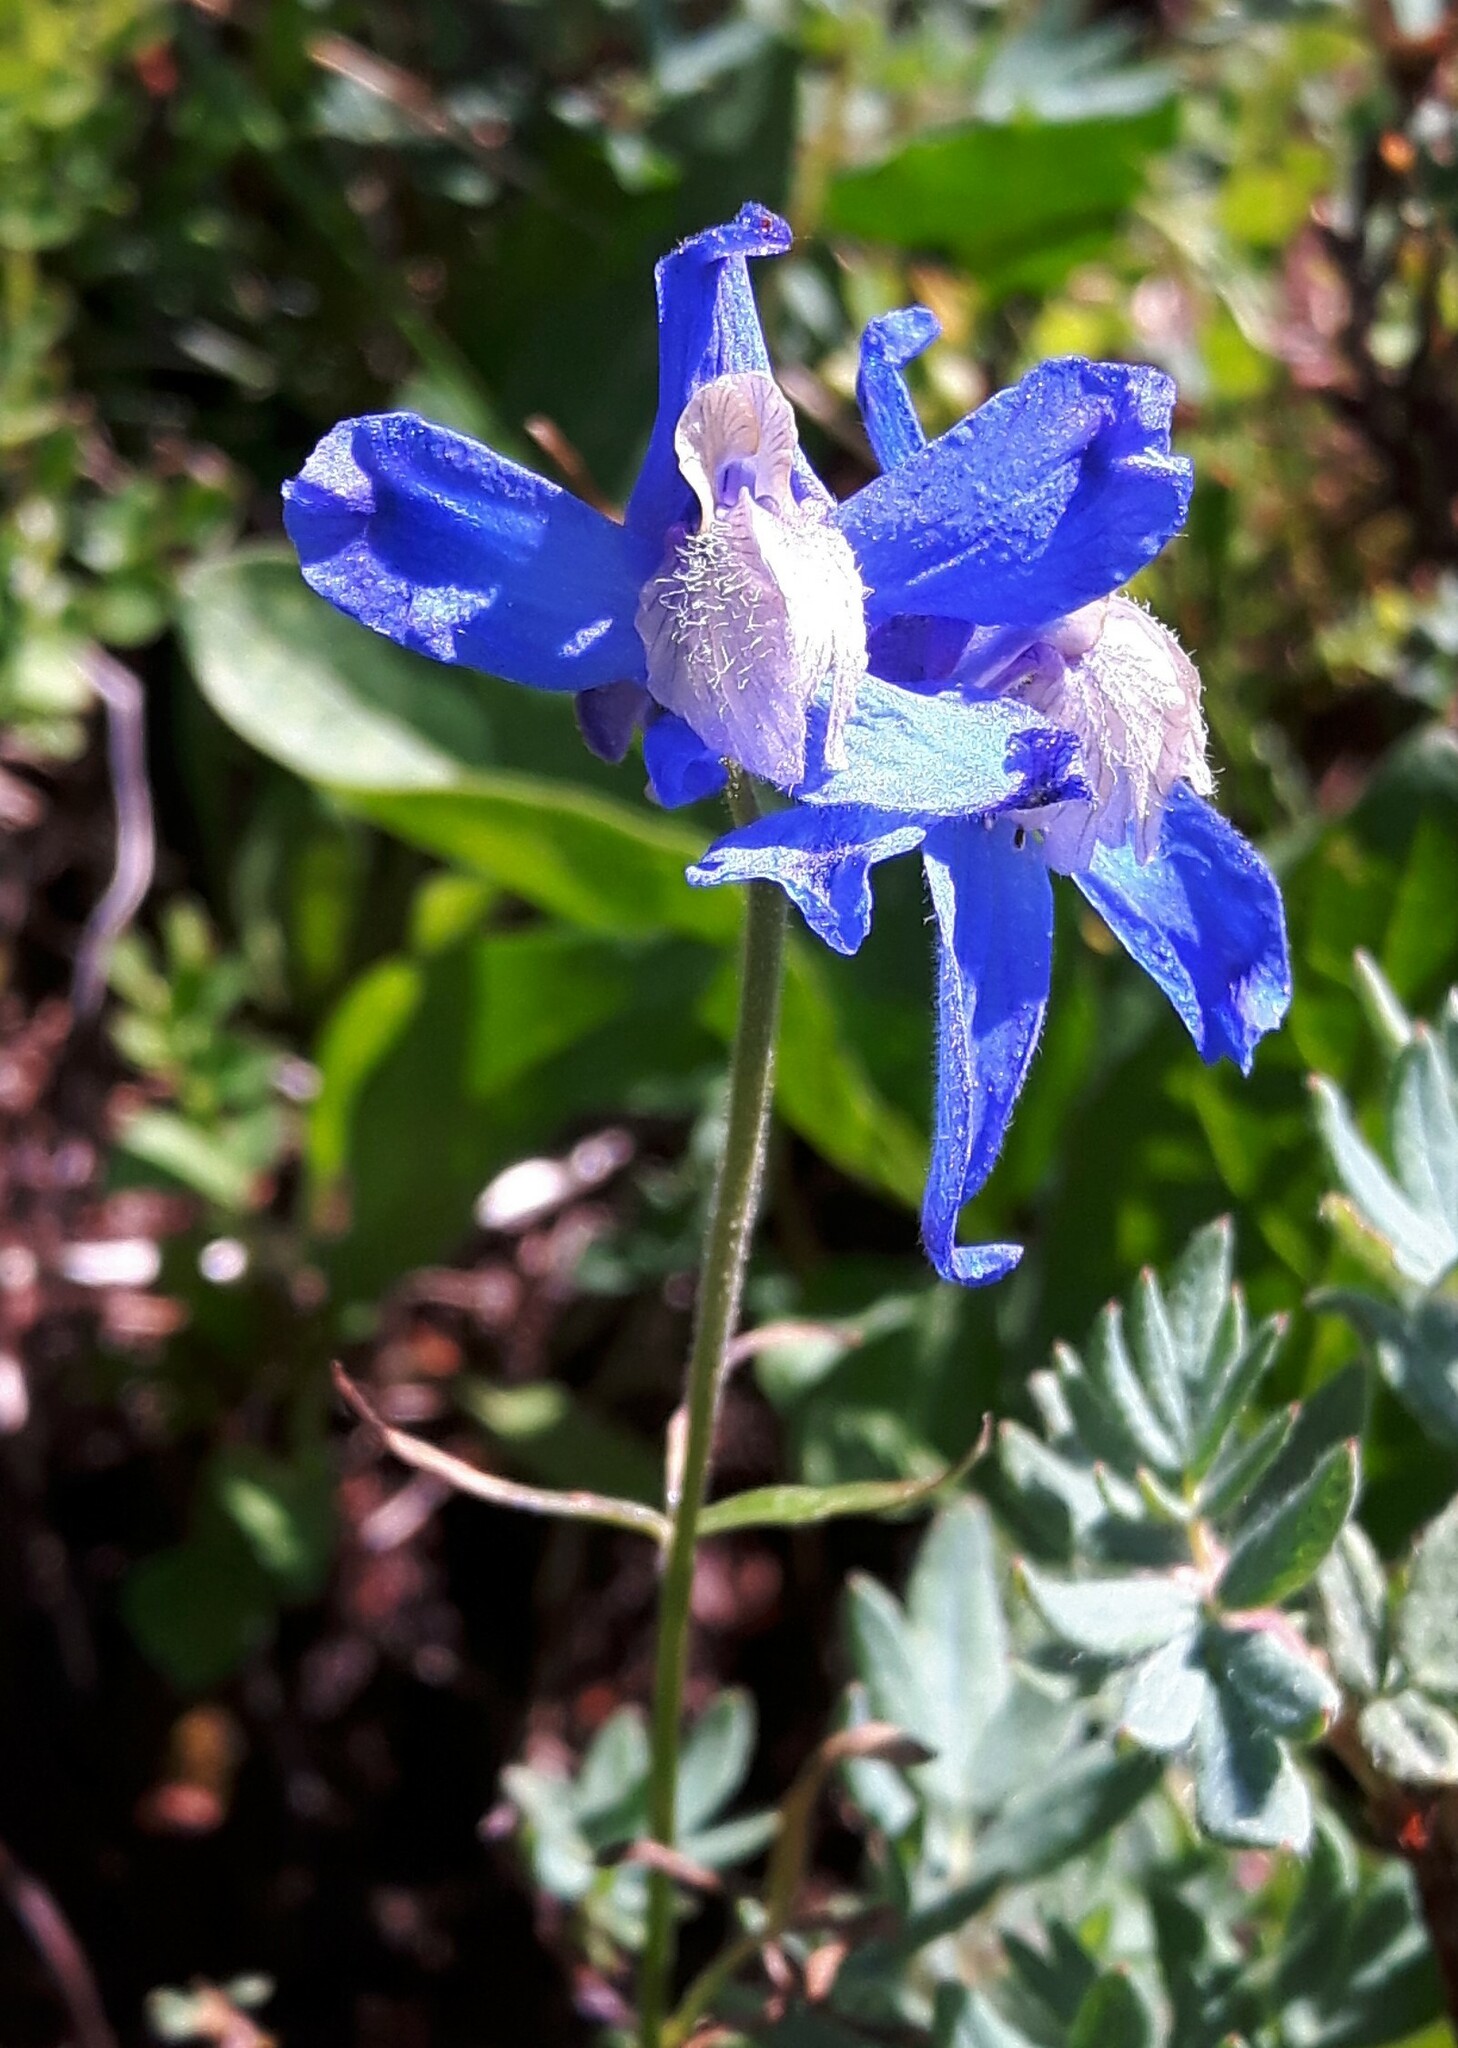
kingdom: Plantae
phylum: Tracheophyta
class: Magnoliopsida
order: Ranunculales
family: Ranunculaceae
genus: Delphinium
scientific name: Delphinium sutherlandii
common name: Sutherland's larkspur
